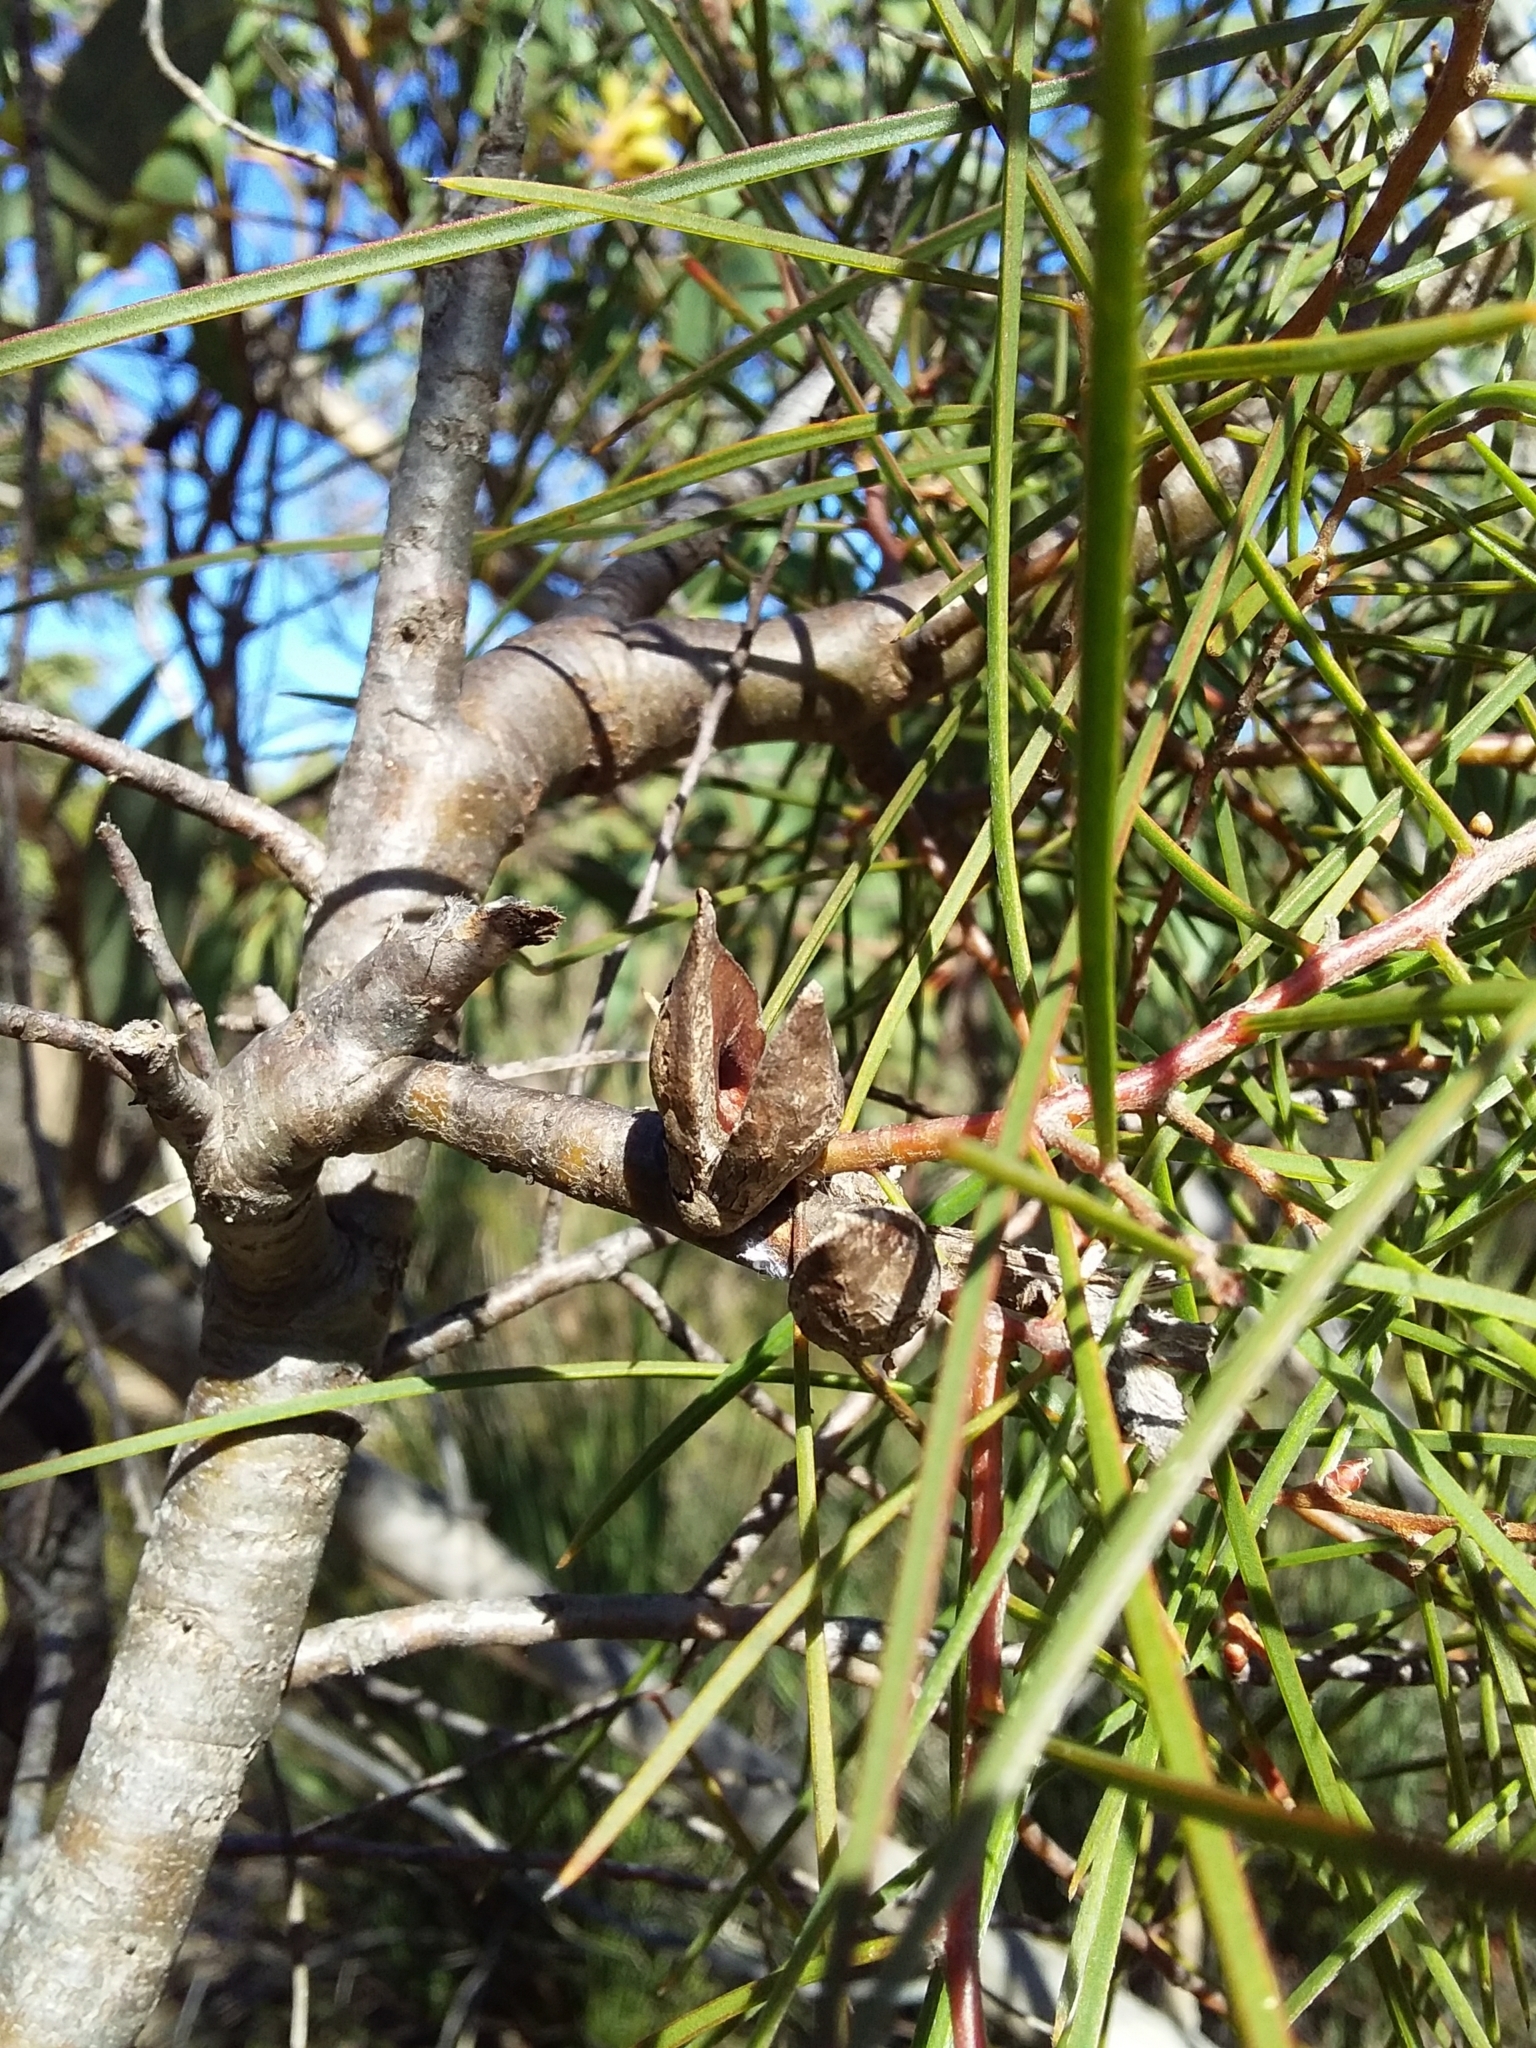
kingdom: Plantae
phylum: Tracheophyta
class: Magnoliopsida
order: Proteales
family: Proteaceae
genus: Hakea
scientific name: Hakea carinata
